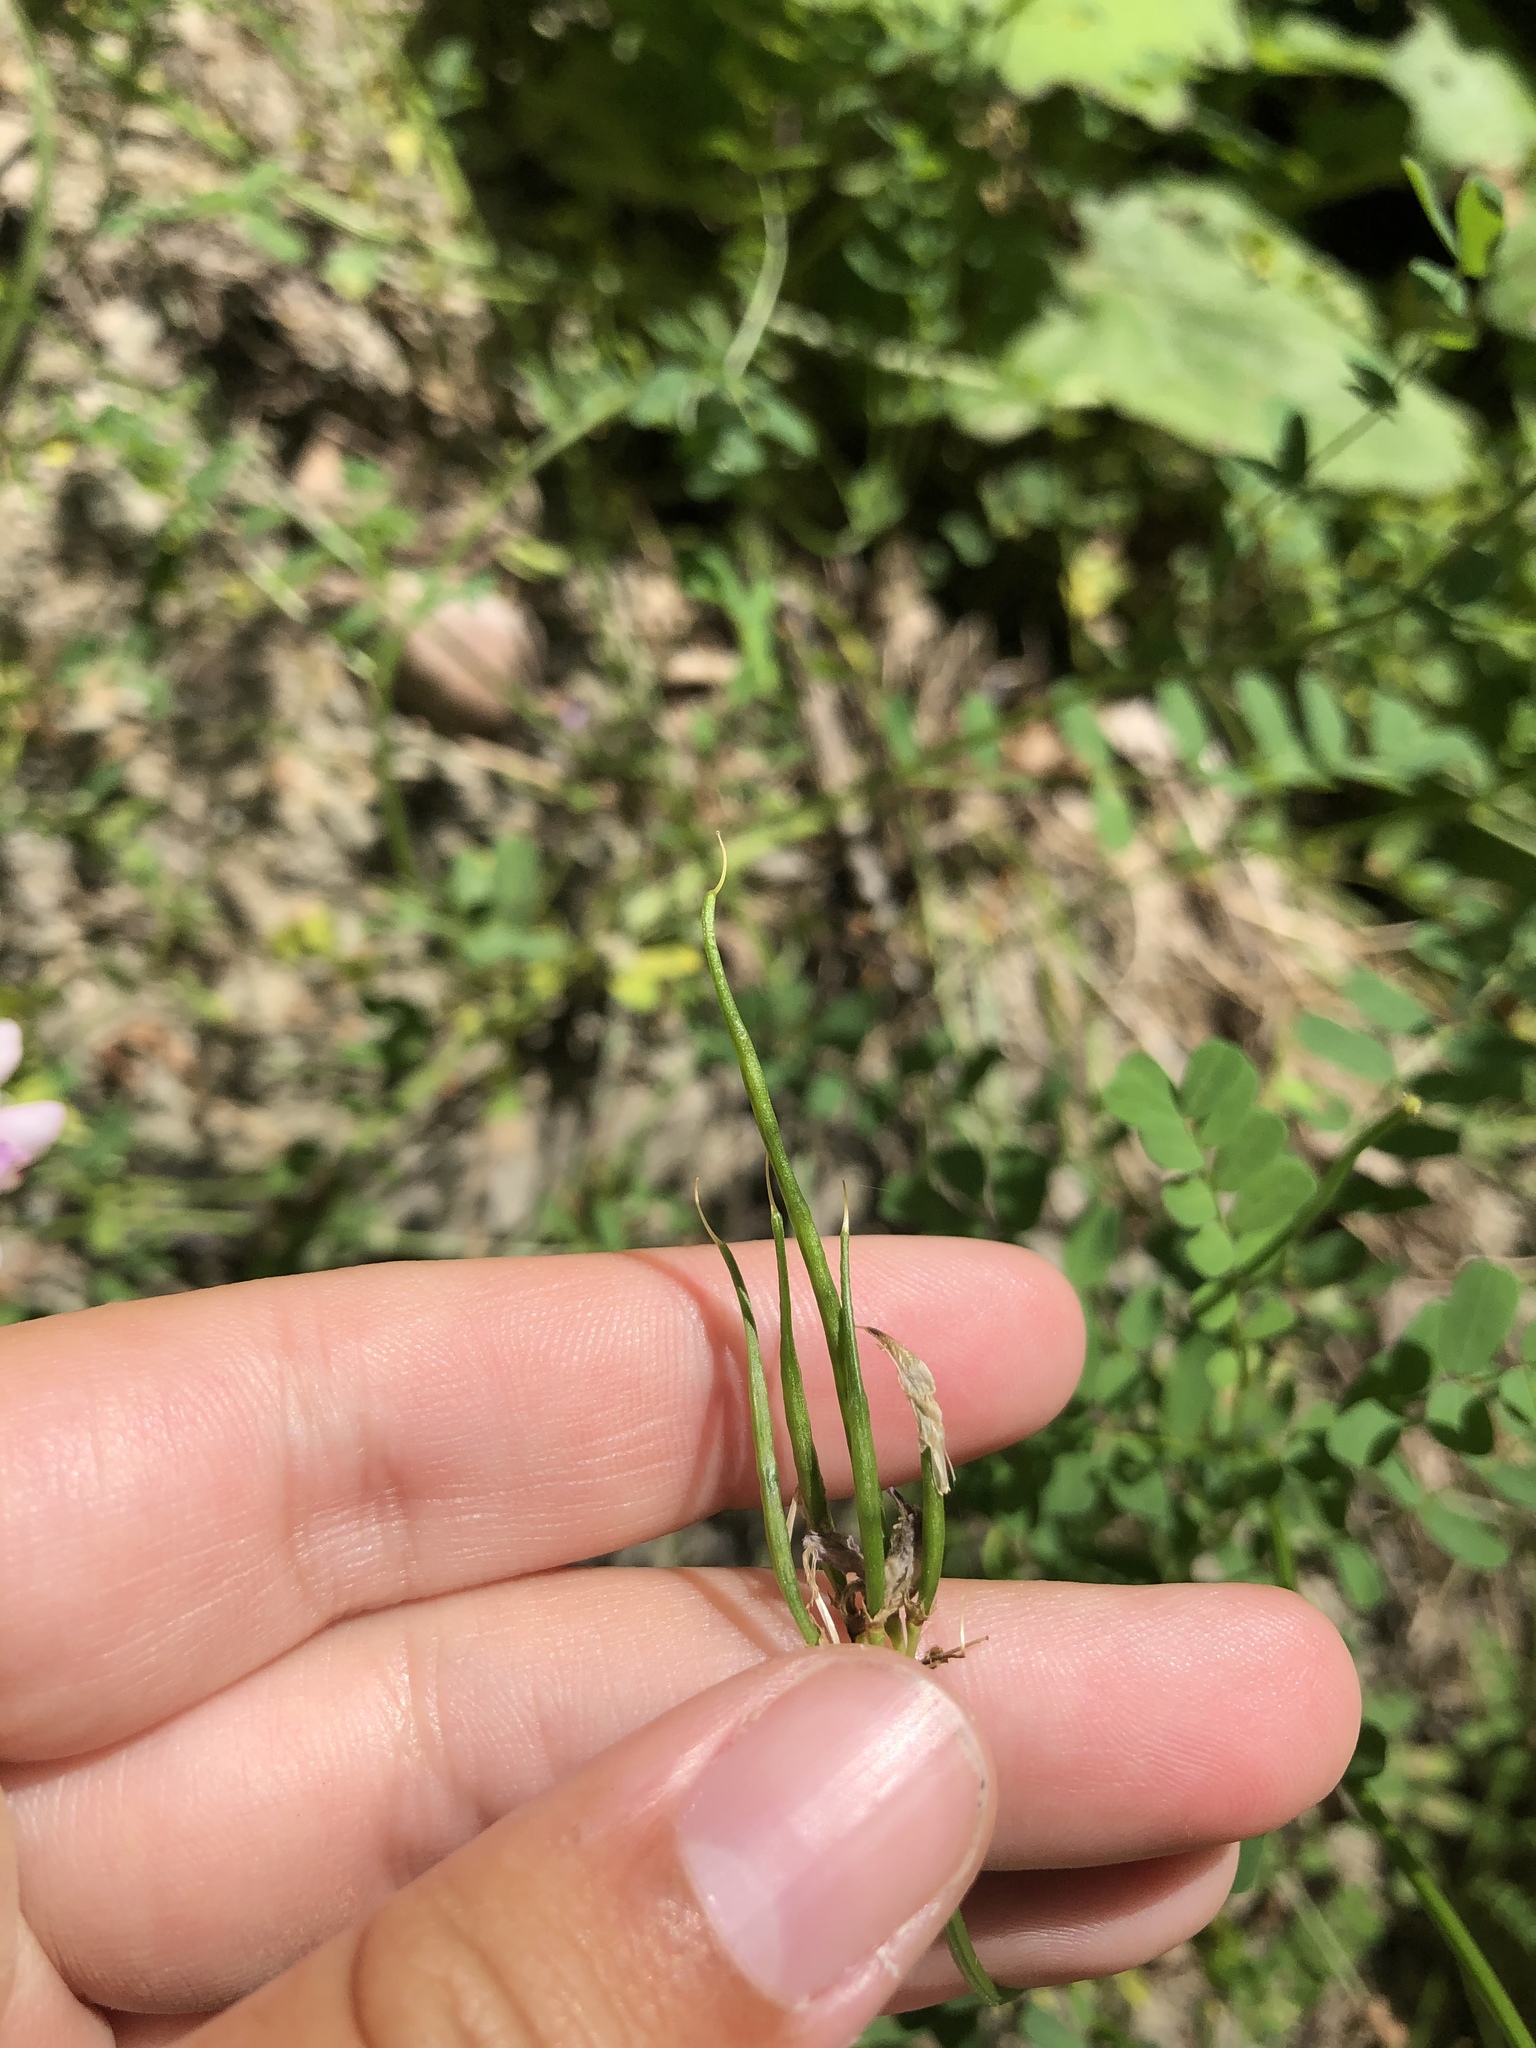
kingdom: Plantae
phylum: Tracheophyta
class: Magnoliopsida
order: Fabales
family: Fabaceae
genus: Coronilla
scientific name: Coronilla varia
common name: Crownvetch
